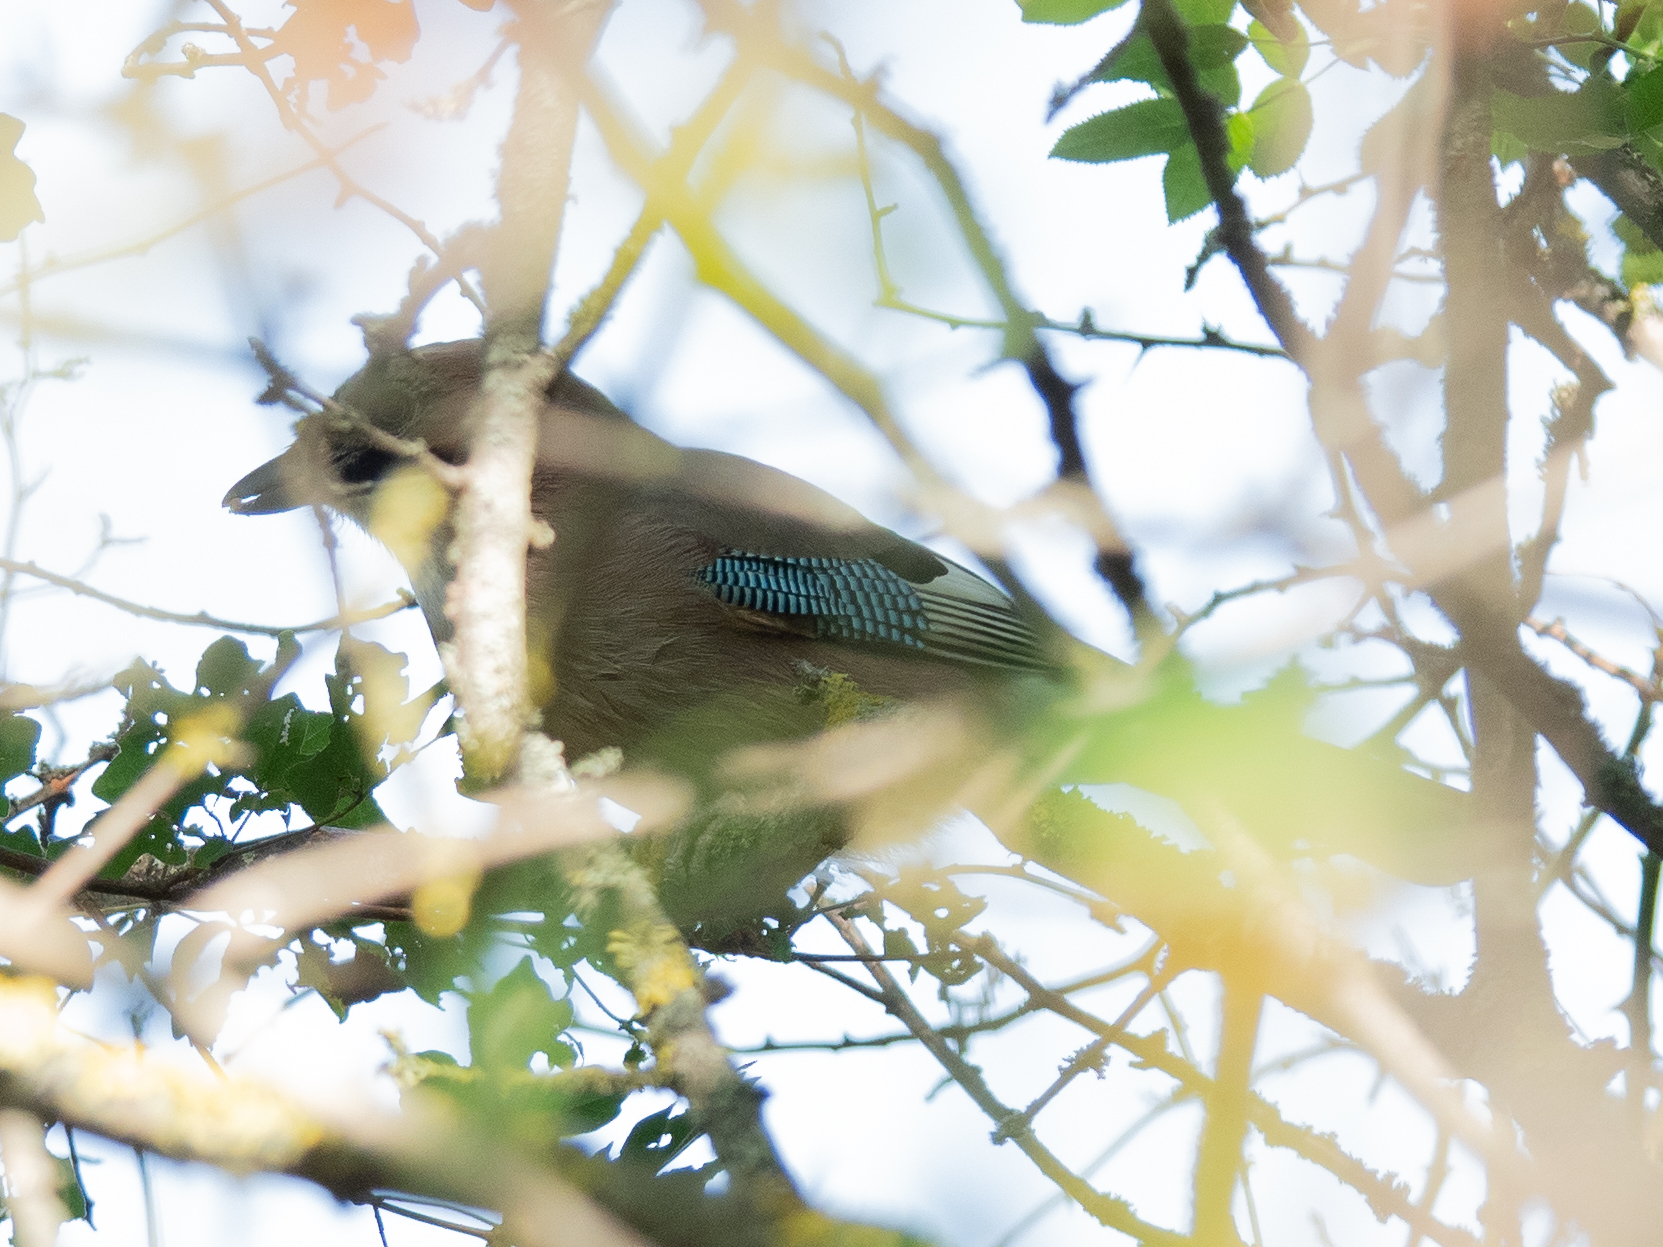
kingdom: Animalia
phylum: Chordata
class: Aves
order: Passeriformes
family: Corvidae
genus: Garrulus
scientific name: Garrulus glandarius
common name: Eurasian jay
